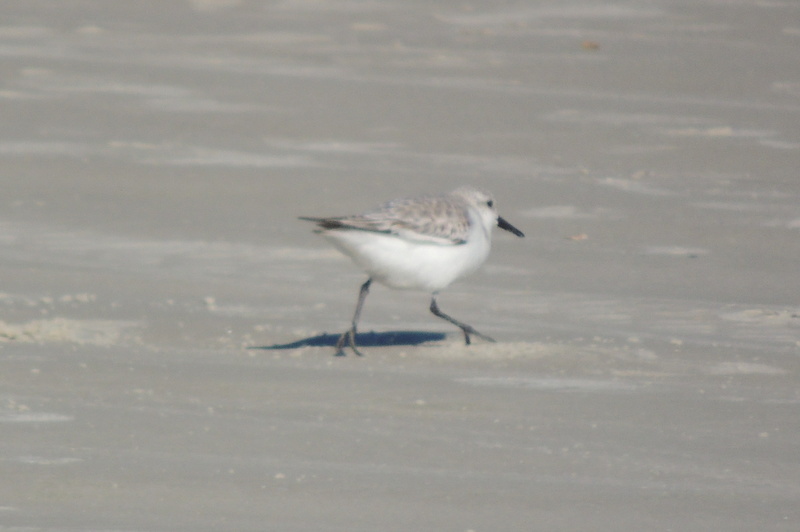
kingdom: Animalia
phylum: Chordata
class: Aves
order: Charadriiformes
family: Scolopacidae
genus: Calidris
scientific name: Calidris alba
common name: Sanderling
